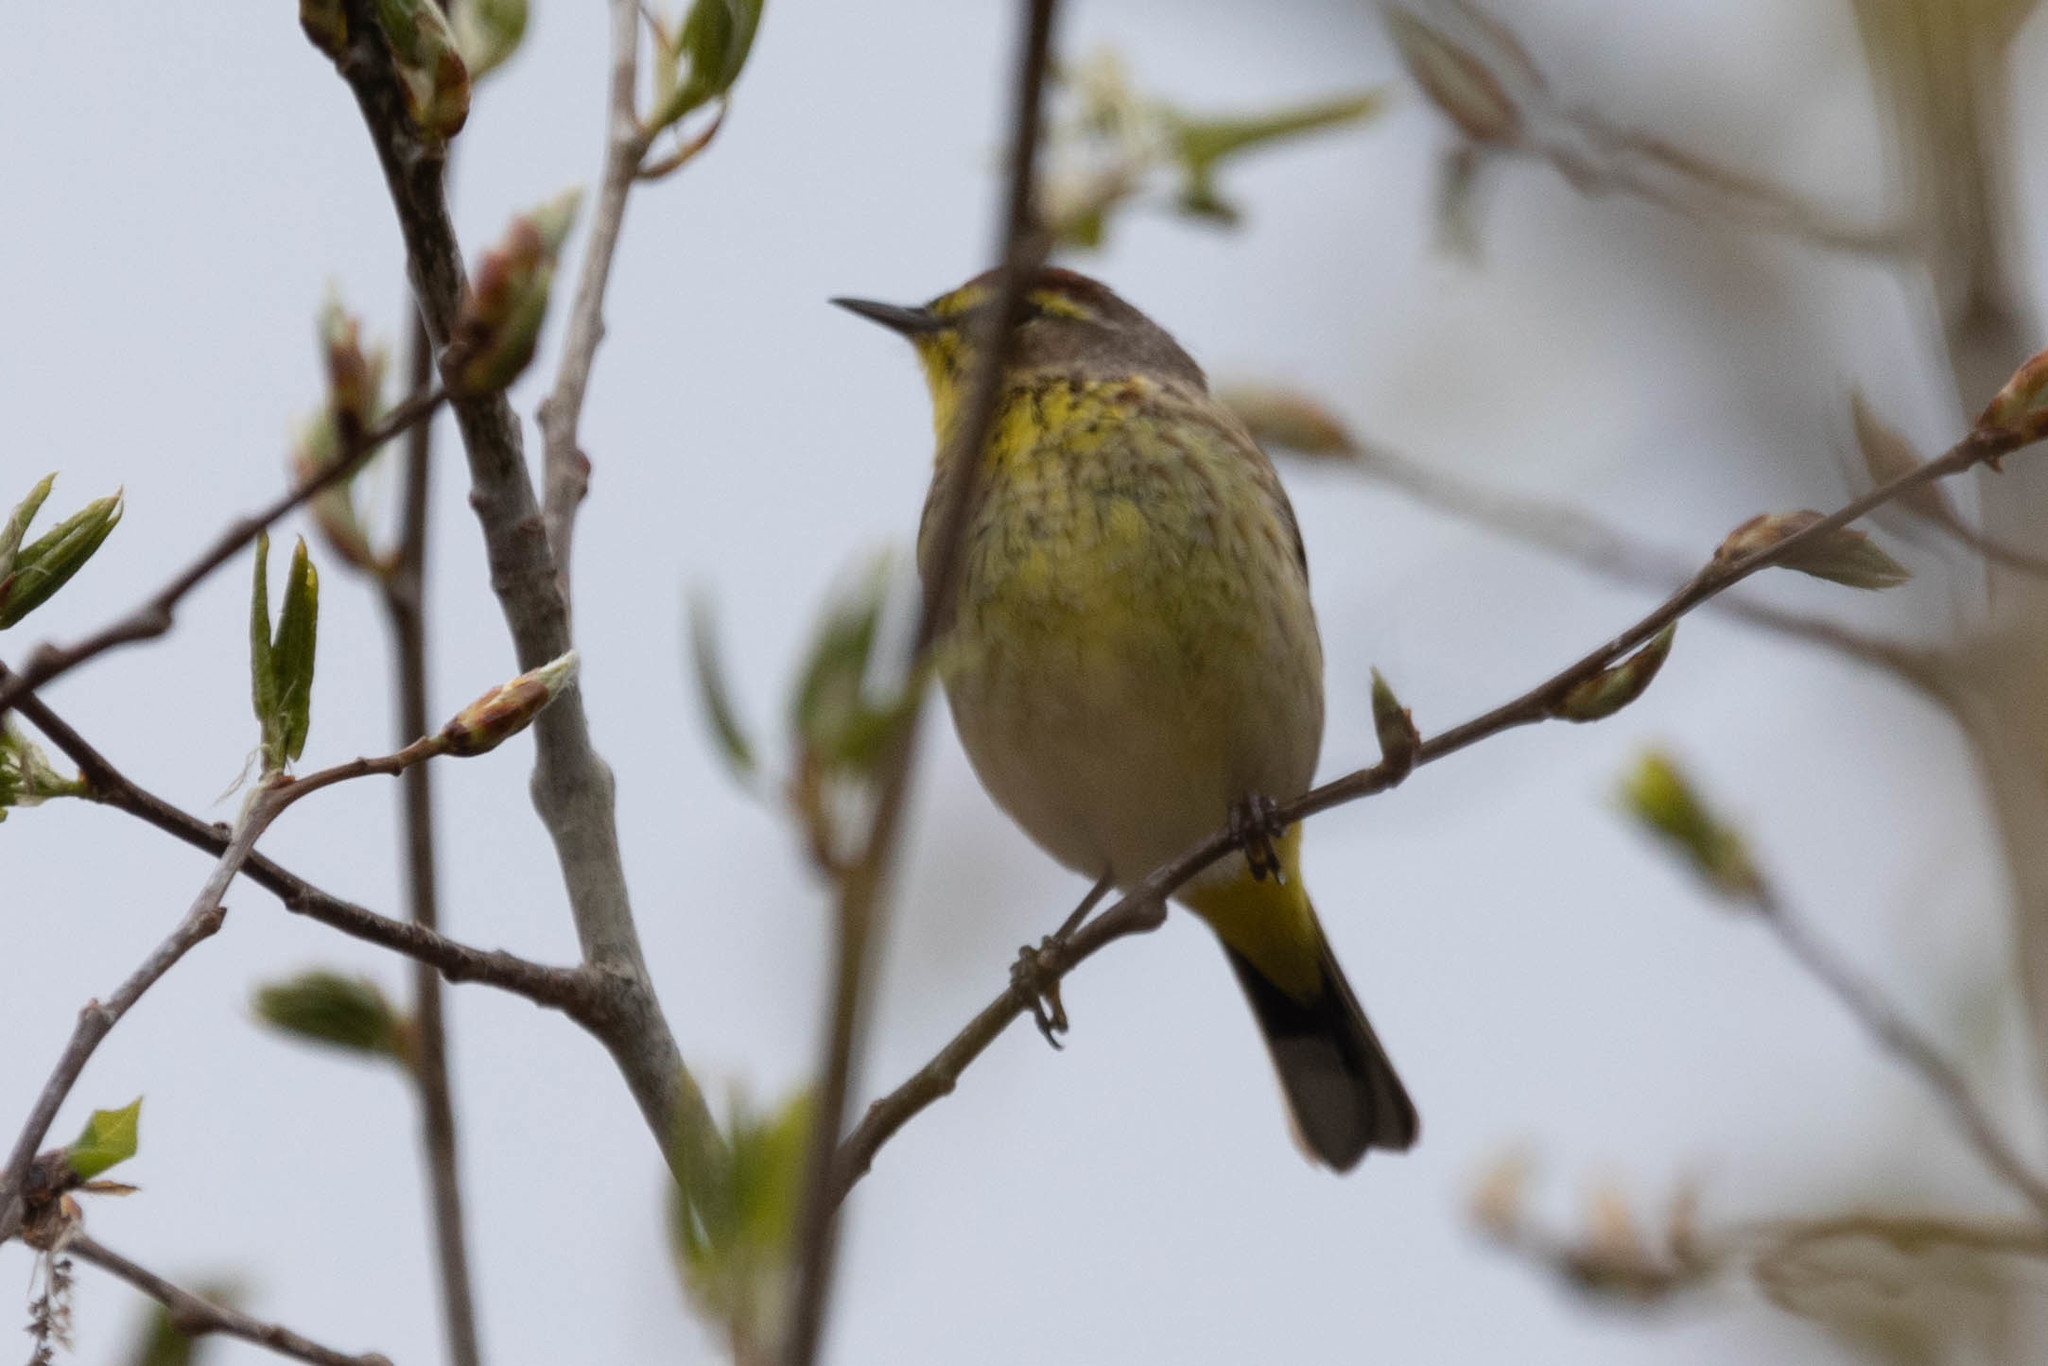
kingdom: Animalia
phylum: Chordata
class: Aves
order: Passeriformes
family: Parulidae
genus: Setophaga
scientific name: Setophaga palmarum
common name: Palm warbler
